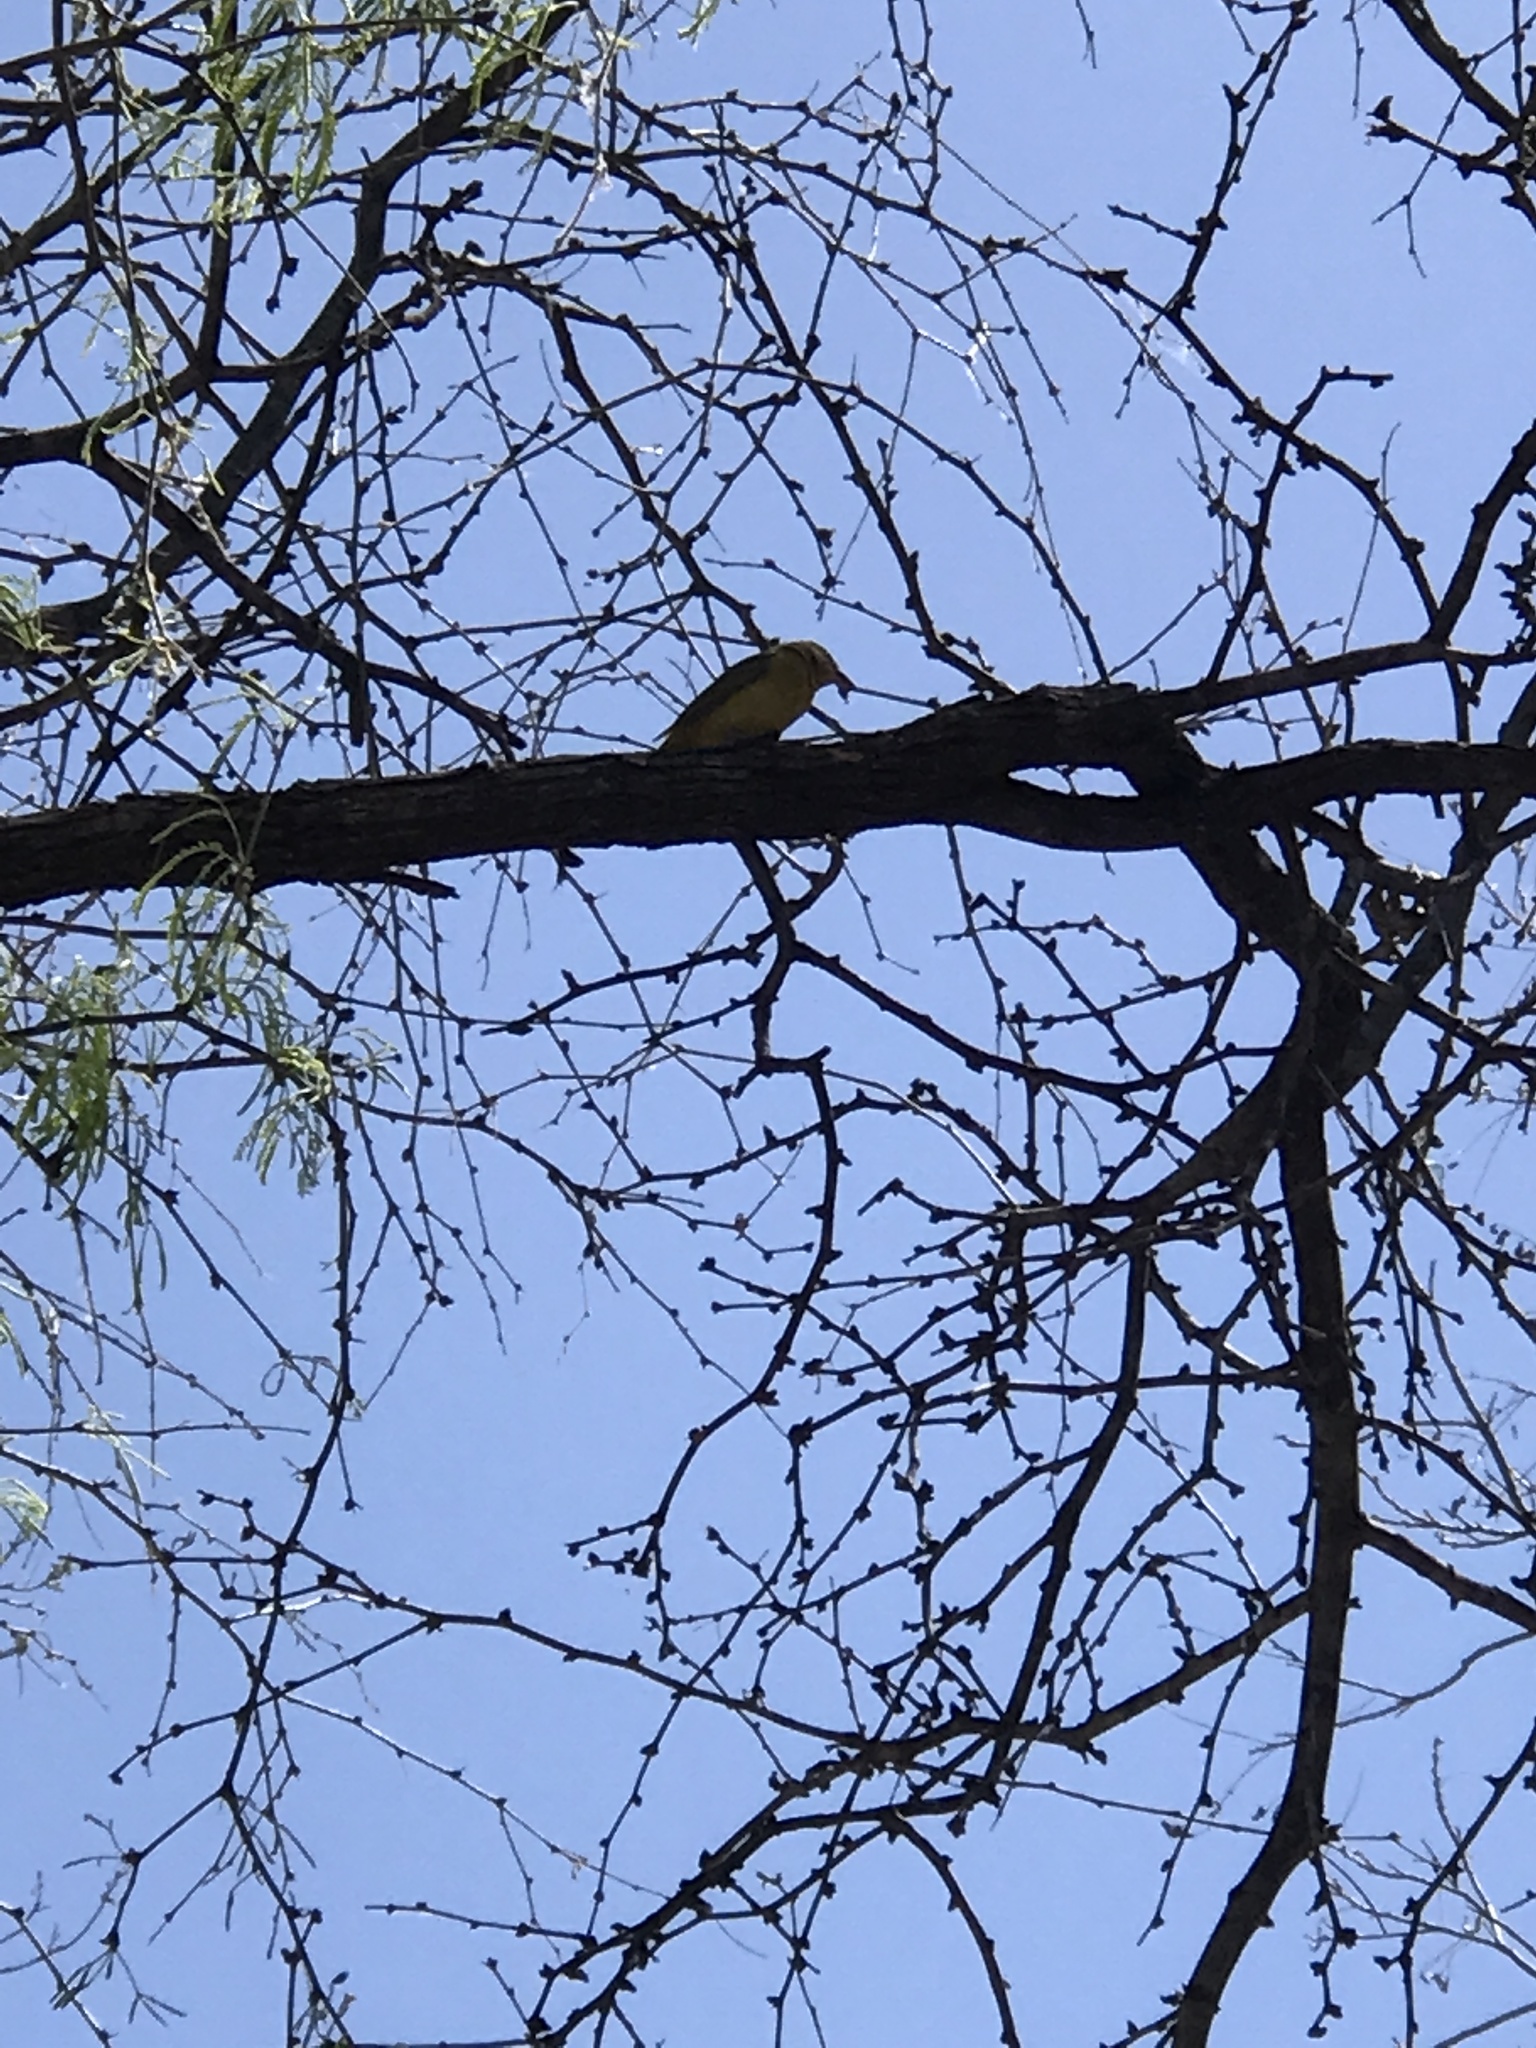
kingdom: Animalia
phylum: Chordata
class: Aves
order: Passeriformes
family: Cardinalidae
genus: Piranga
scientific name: Piranga rubra
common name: Summer tanager
